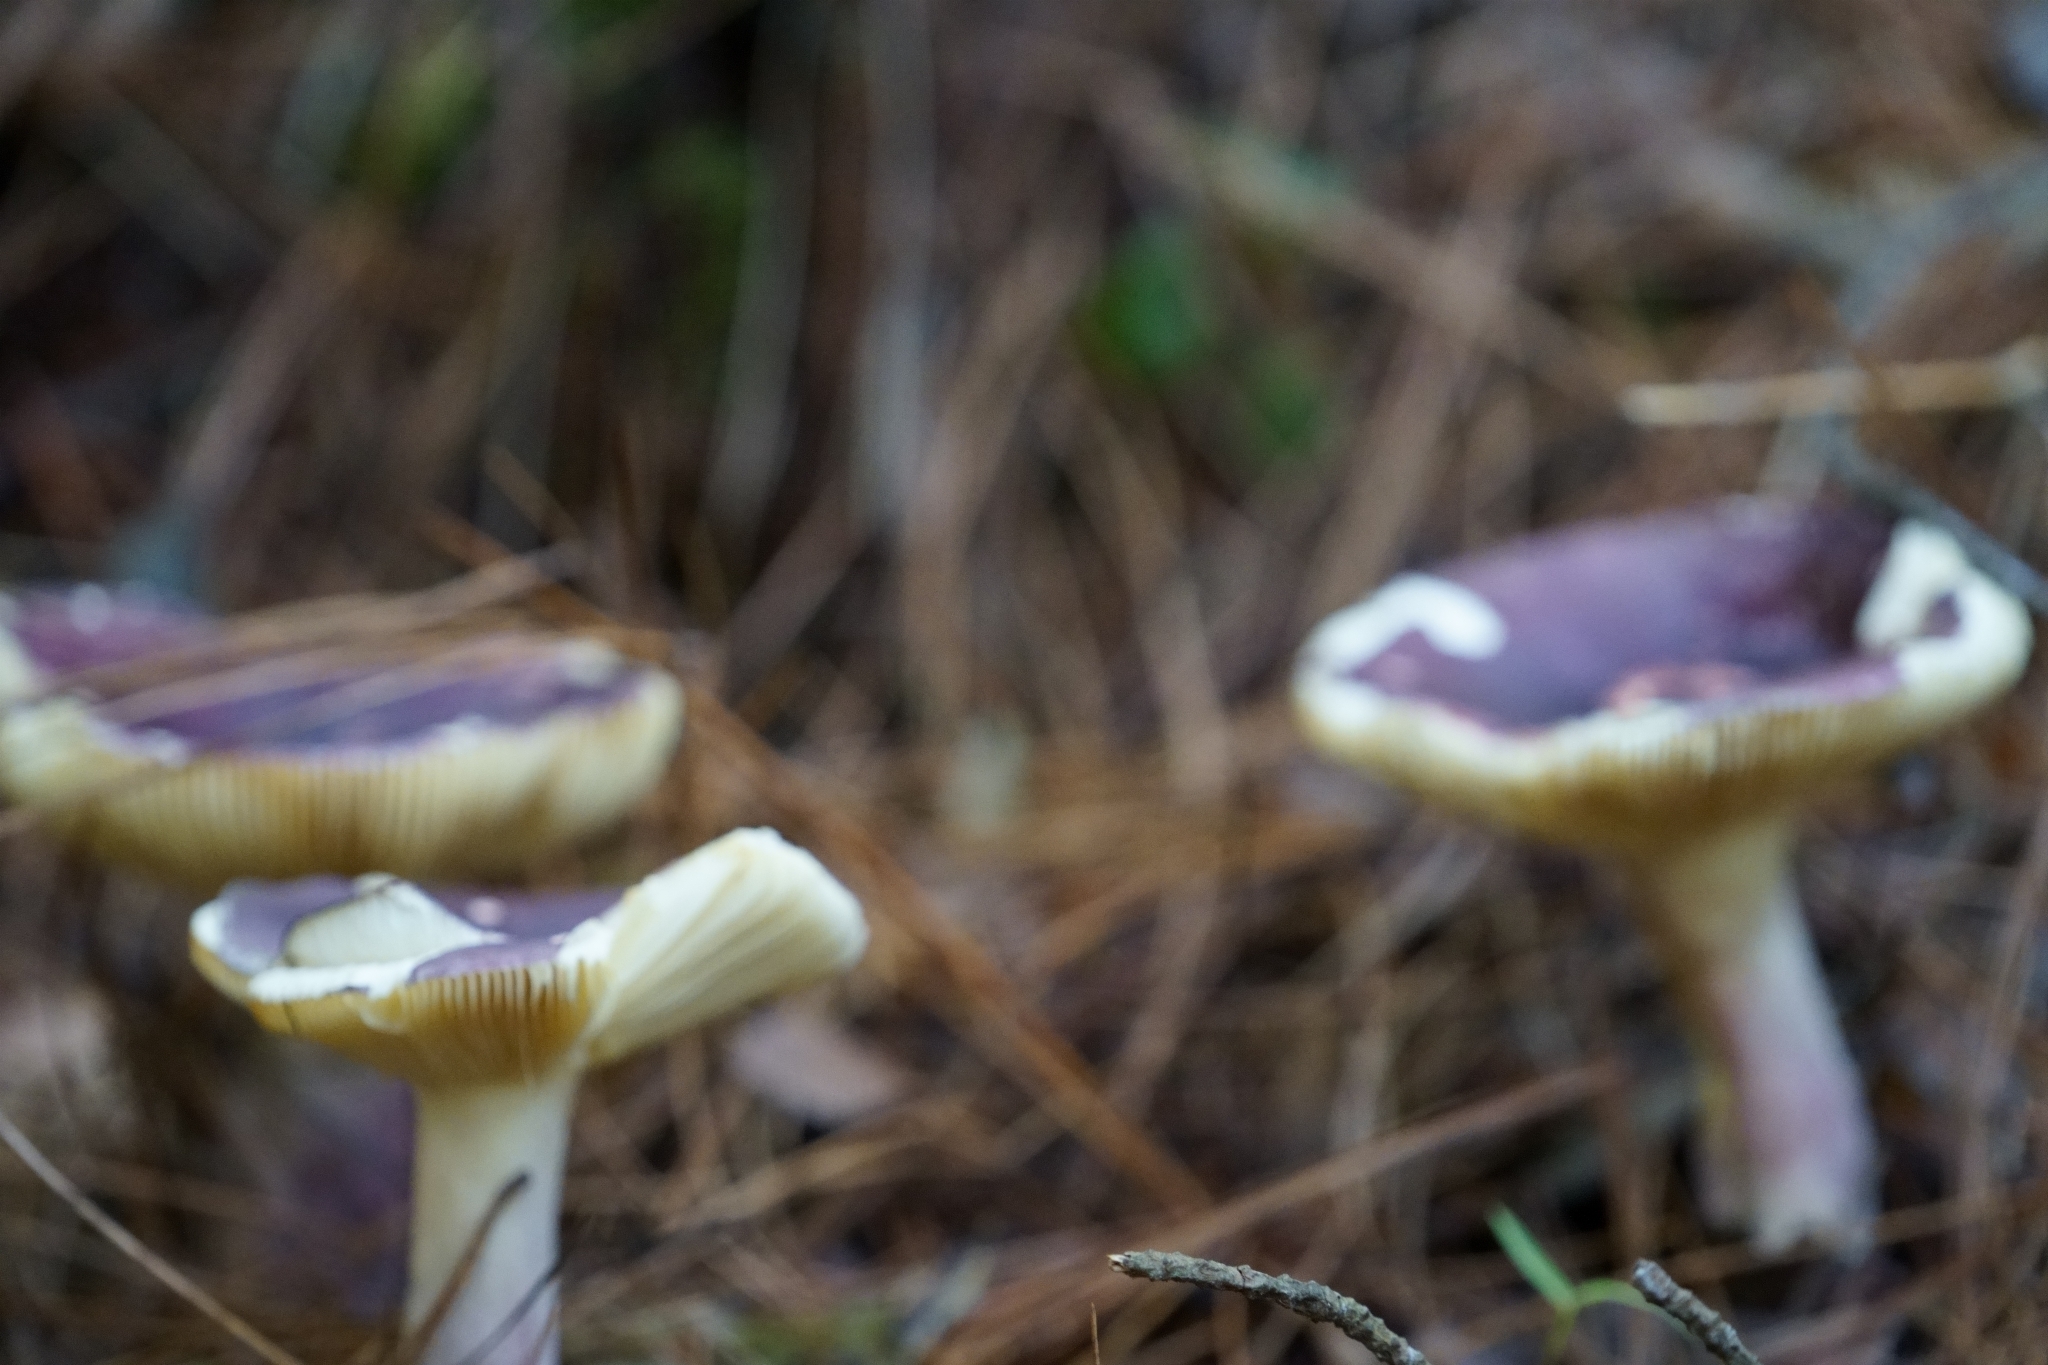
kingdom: Fungi
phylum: Basidiomycota
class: Agaricomycetes
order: Russulales
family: Russulaceae
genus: Russula
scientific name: Russula sardonia
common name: Primrose brittlegill
